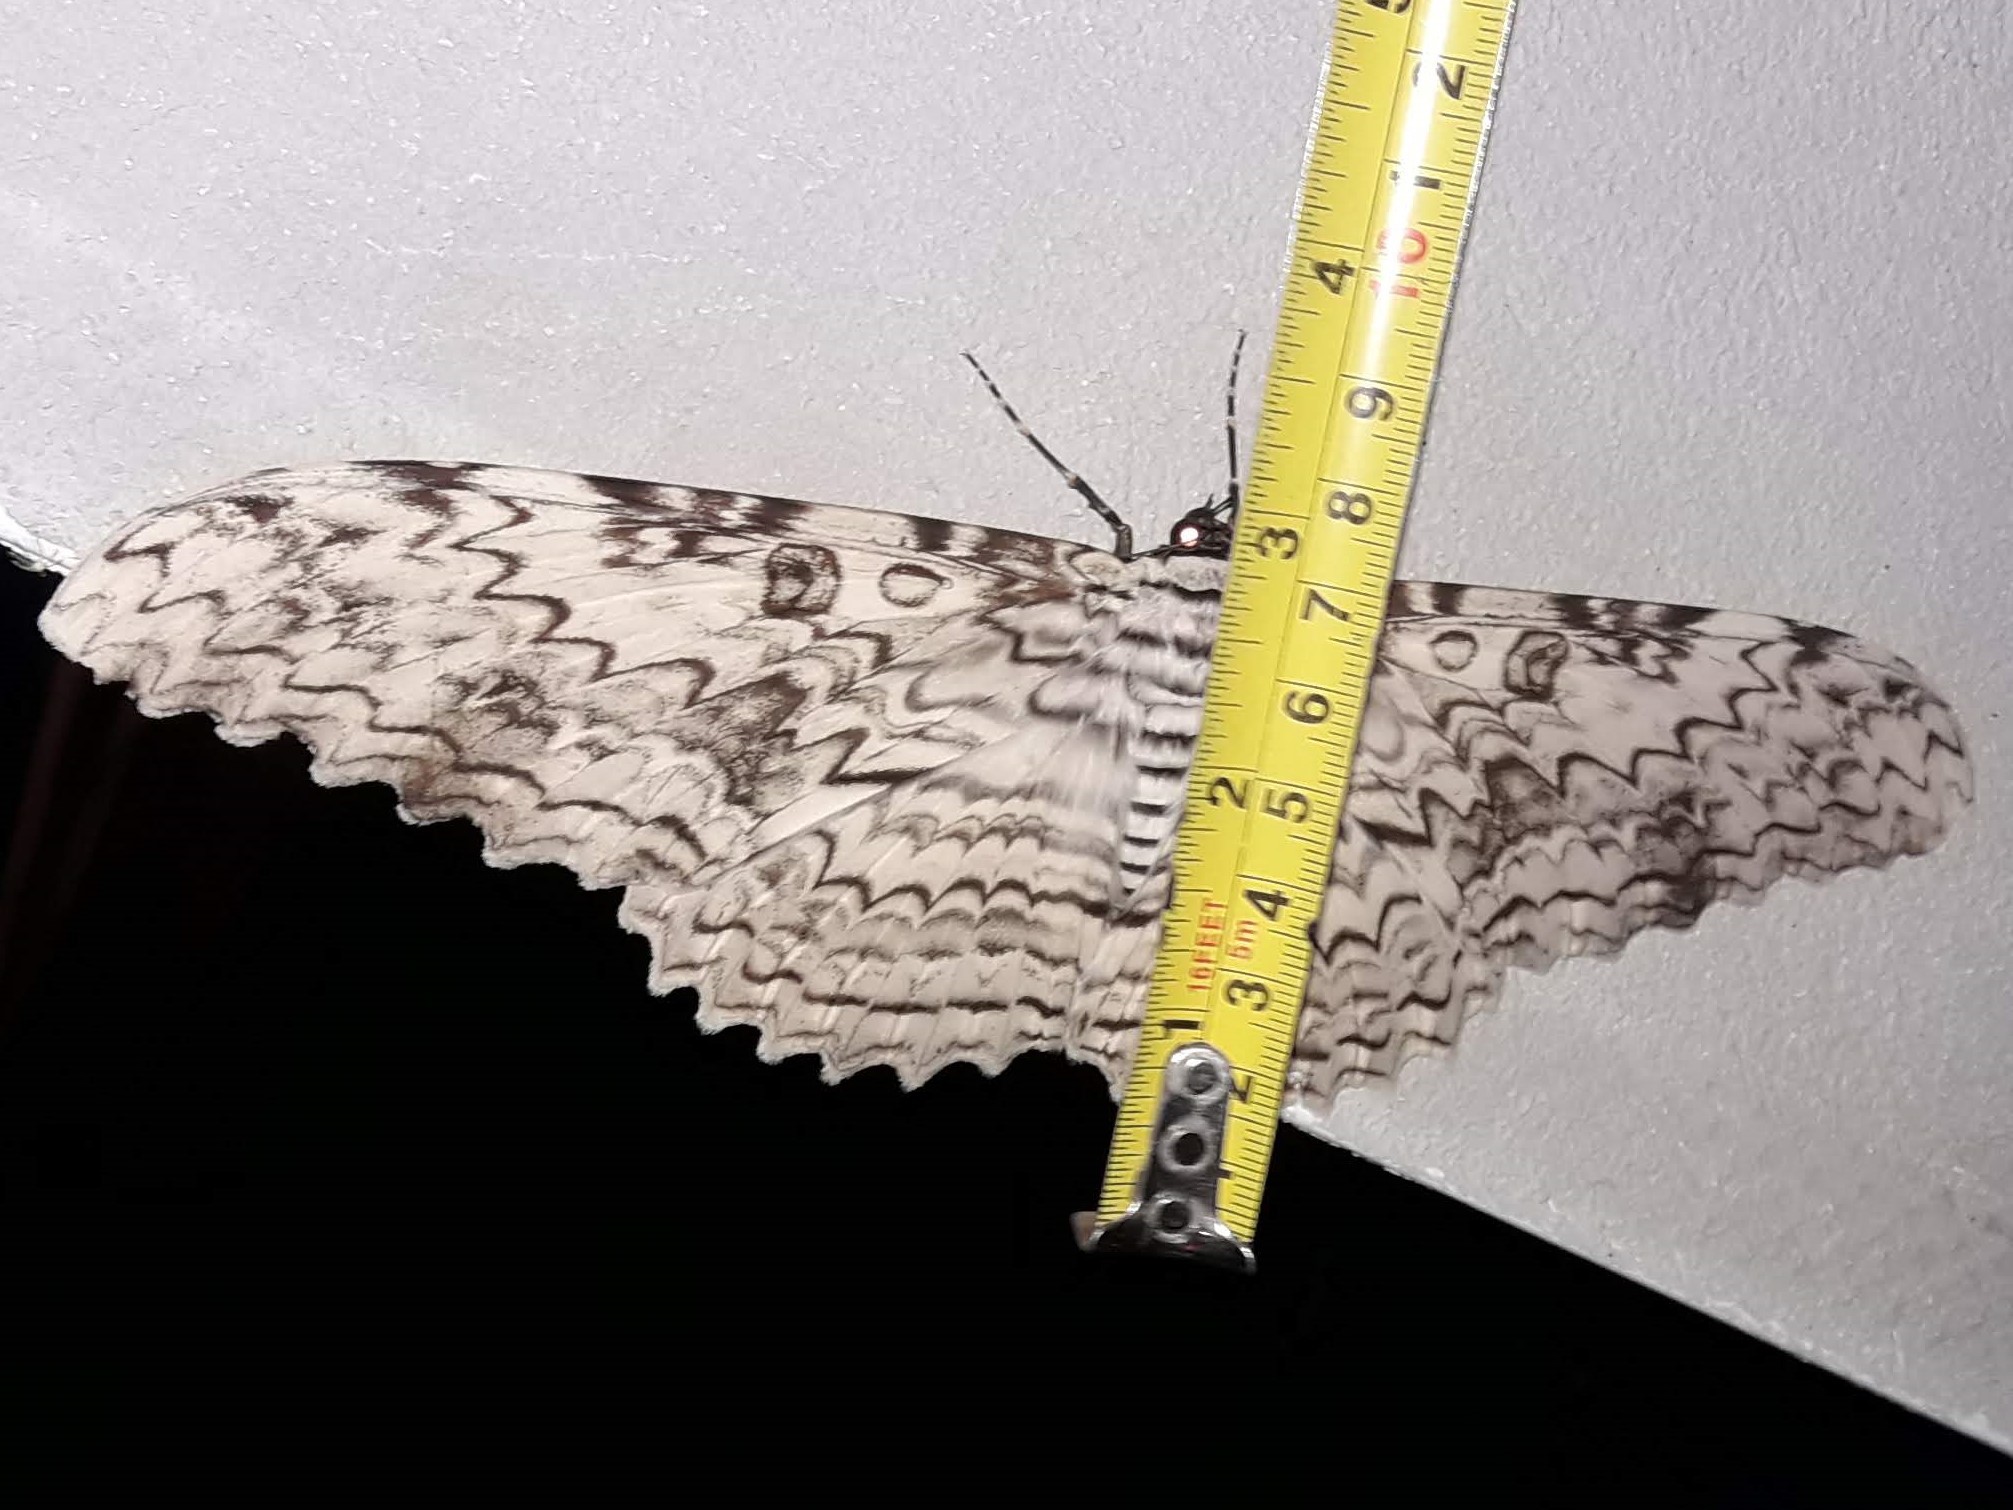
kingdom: Animalia
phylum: Arthropoda
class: Insecta
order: Lepidoptera
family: Erebidae
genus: Thysania
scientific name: Thysania agrippina
